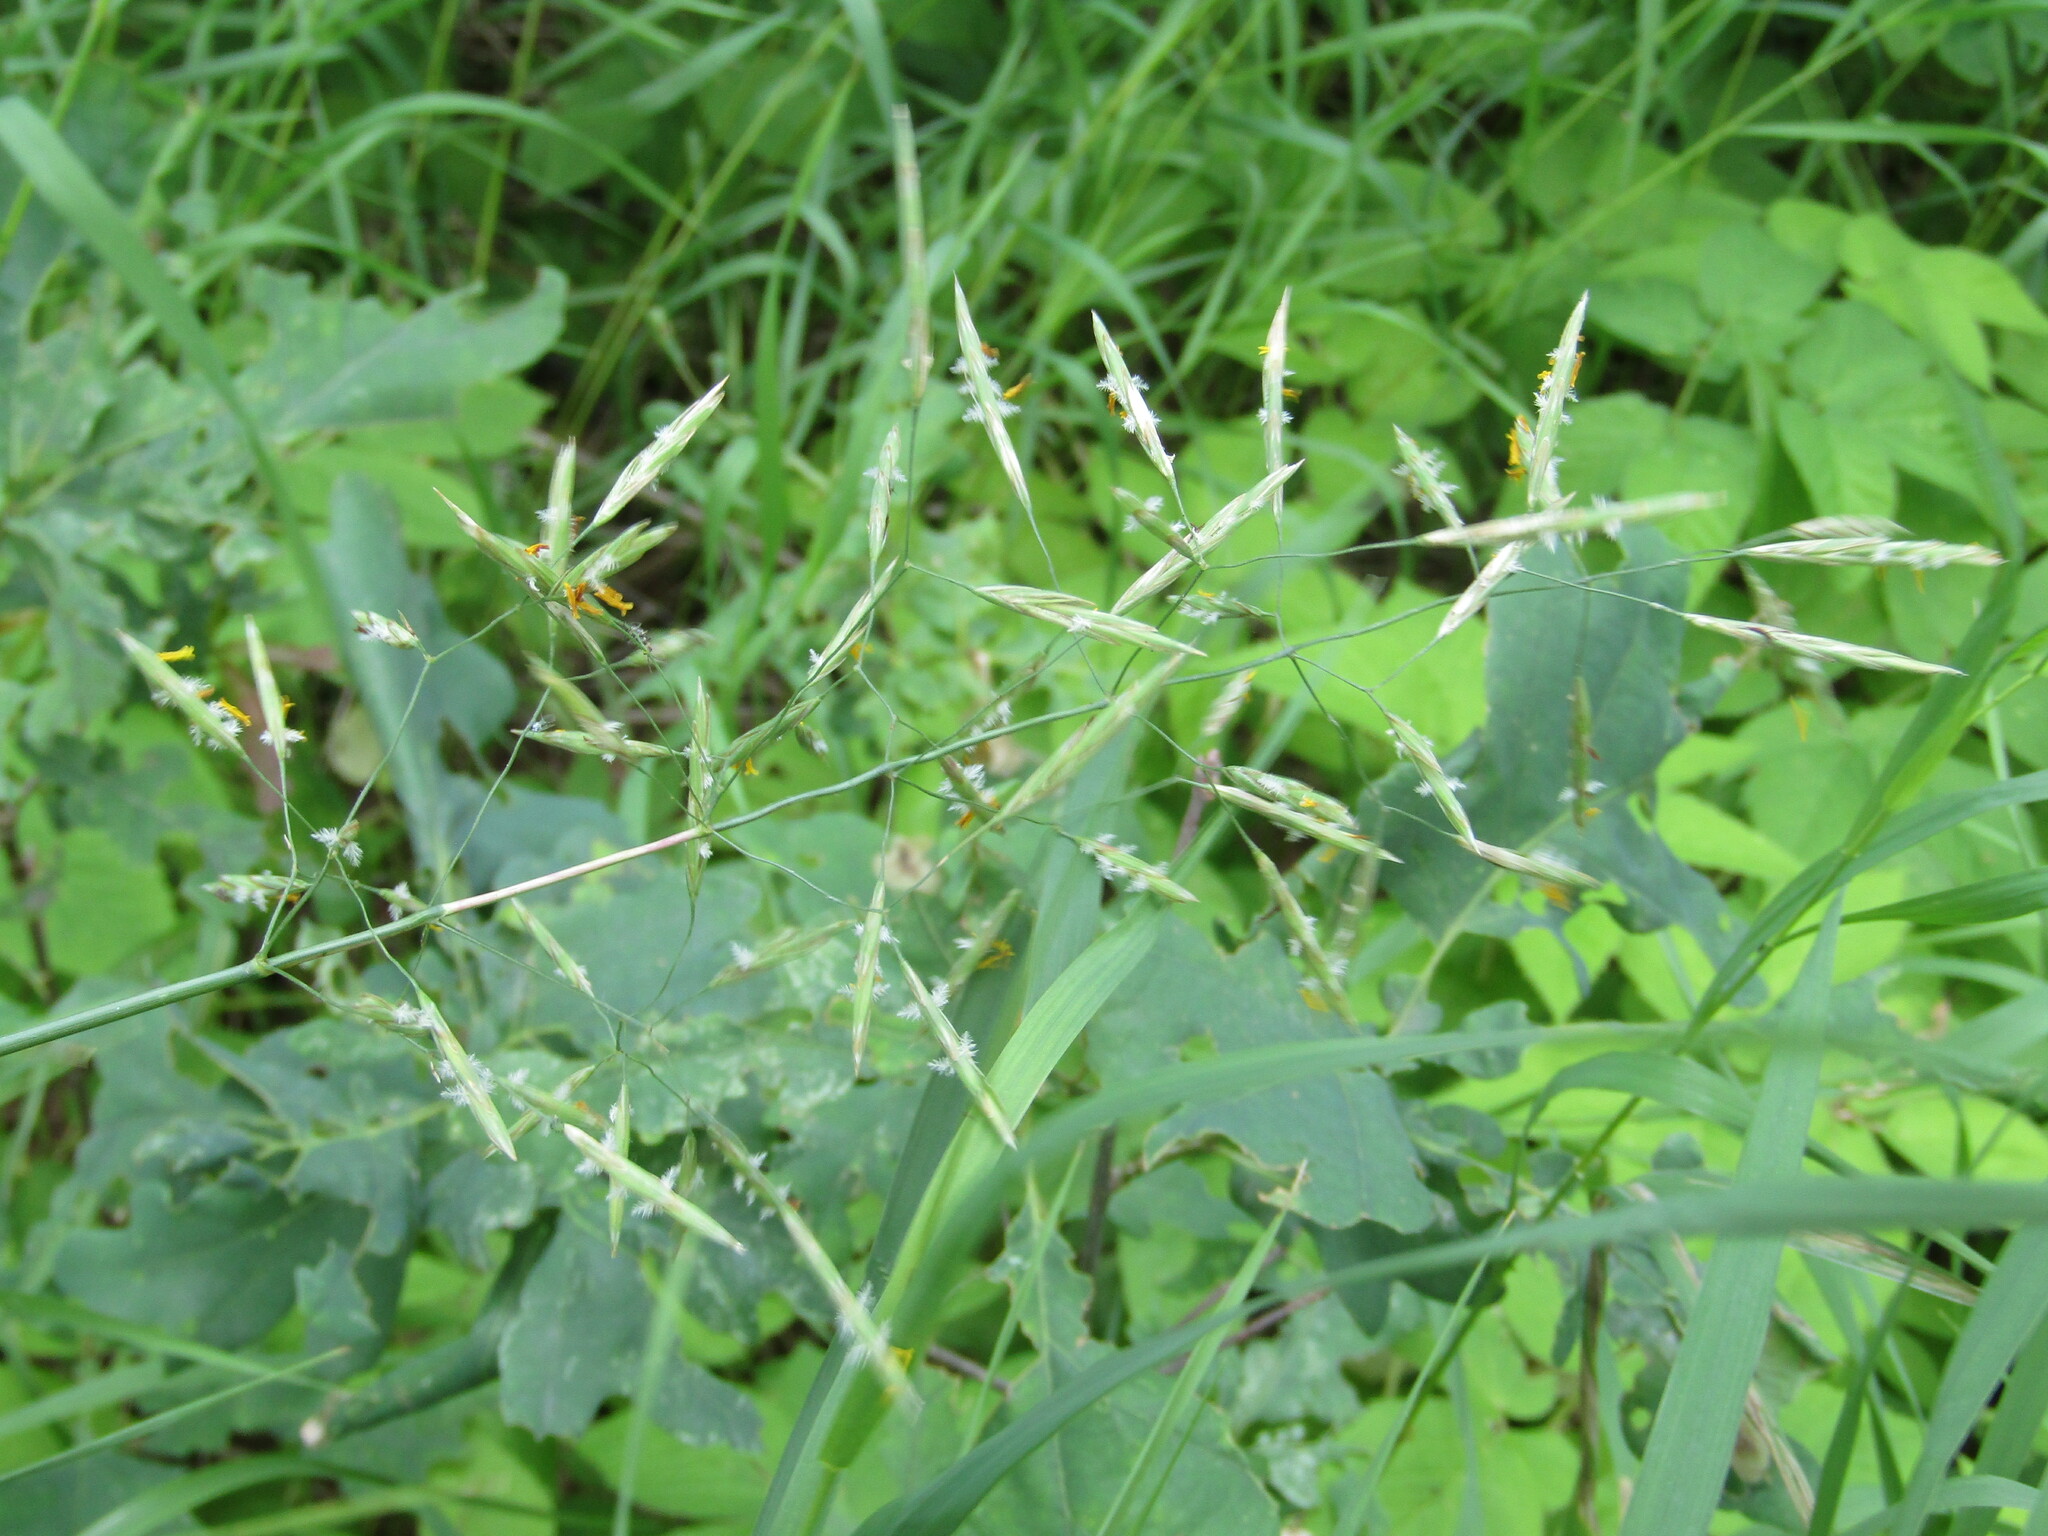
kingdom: Plantae
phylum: Tracheophyta
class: Liliopsida
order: Poales
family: Poaceae
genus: Bromus
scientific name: Bromus inermis
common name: Smooth brome
